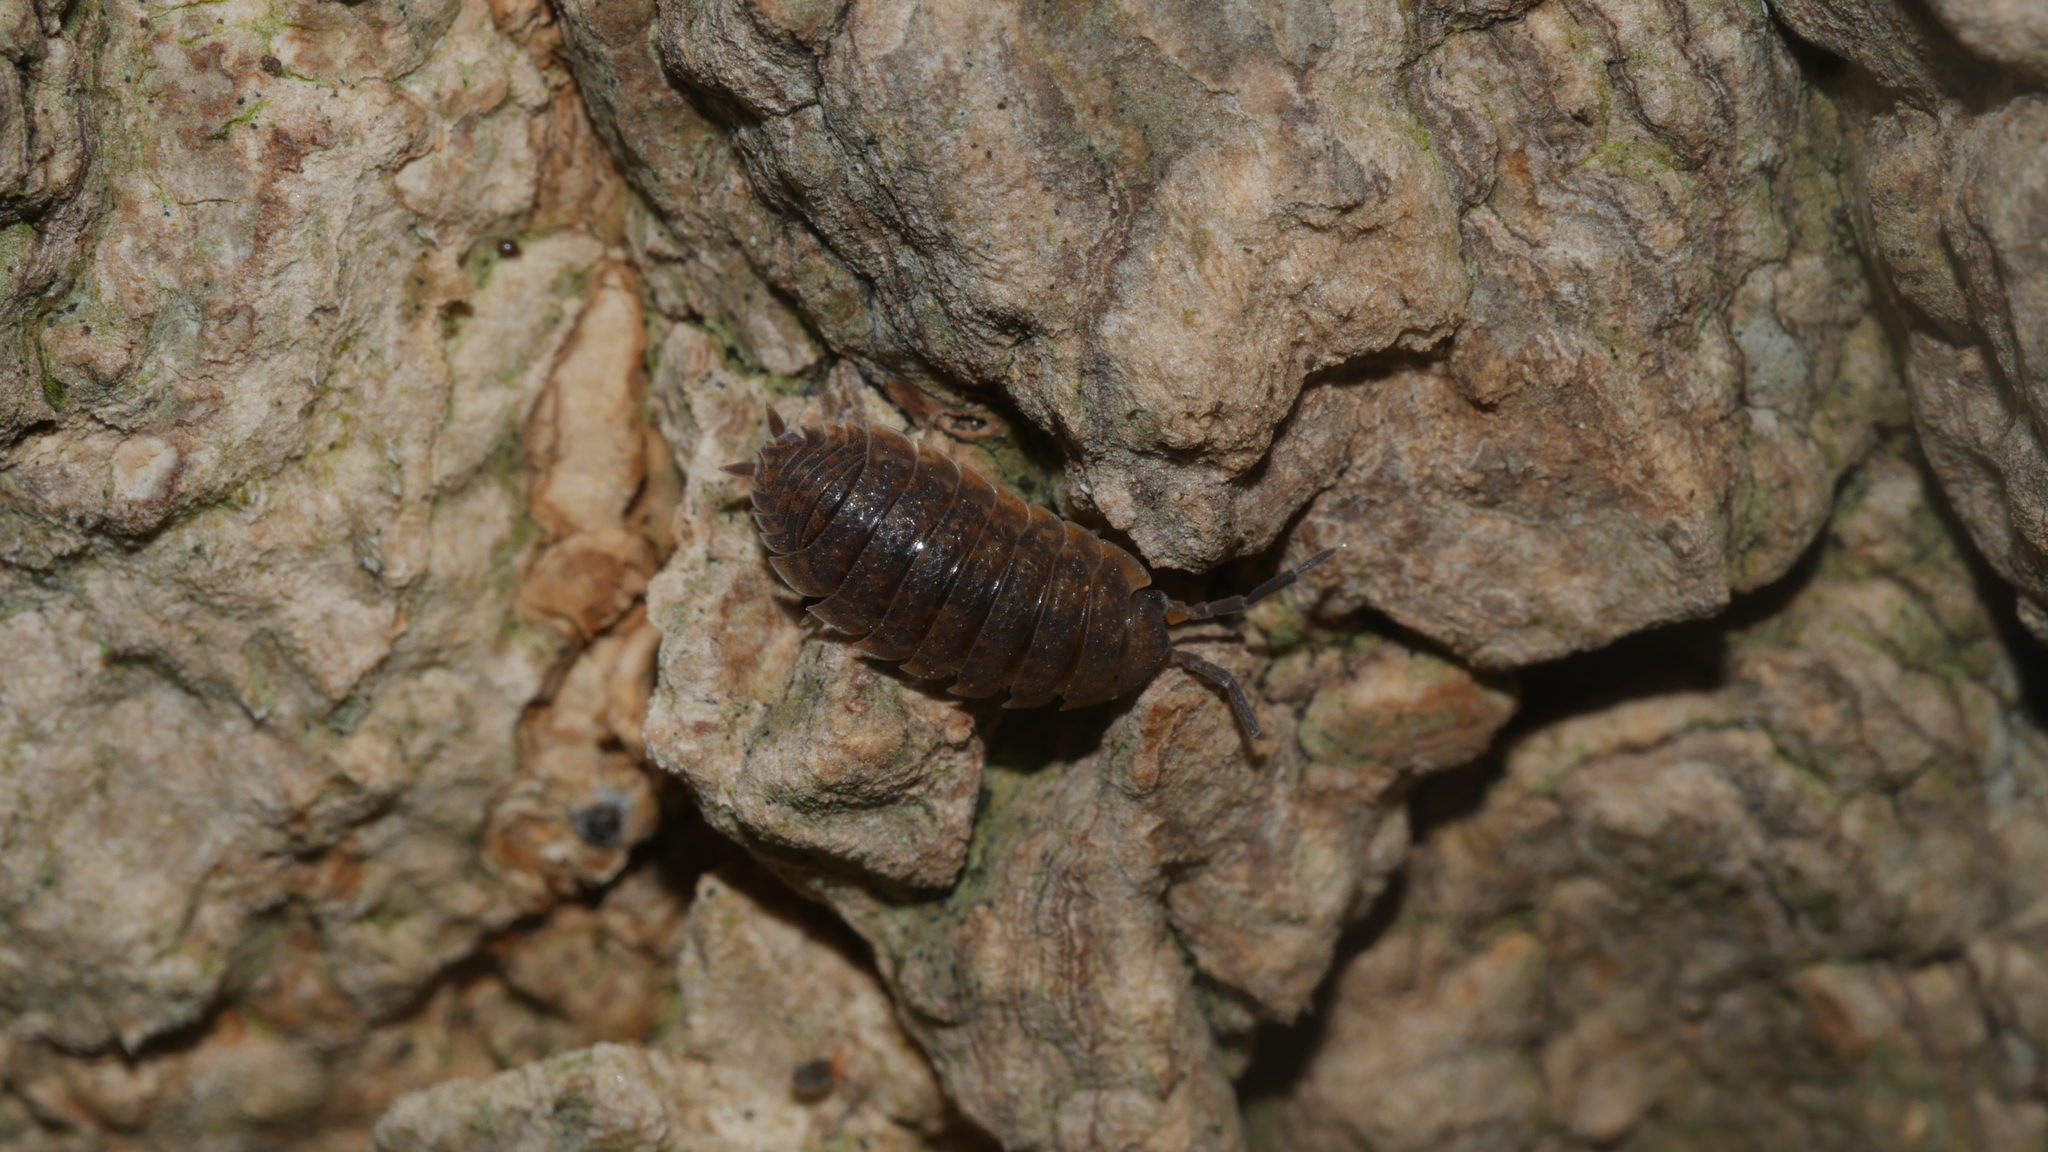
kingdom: Animalia
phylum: Arthropoda
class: Malacostraca
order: Isopoda
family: Porcellionidae
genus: Porcellio
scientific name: Porcellio scaber
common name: Common rough woodlouse
